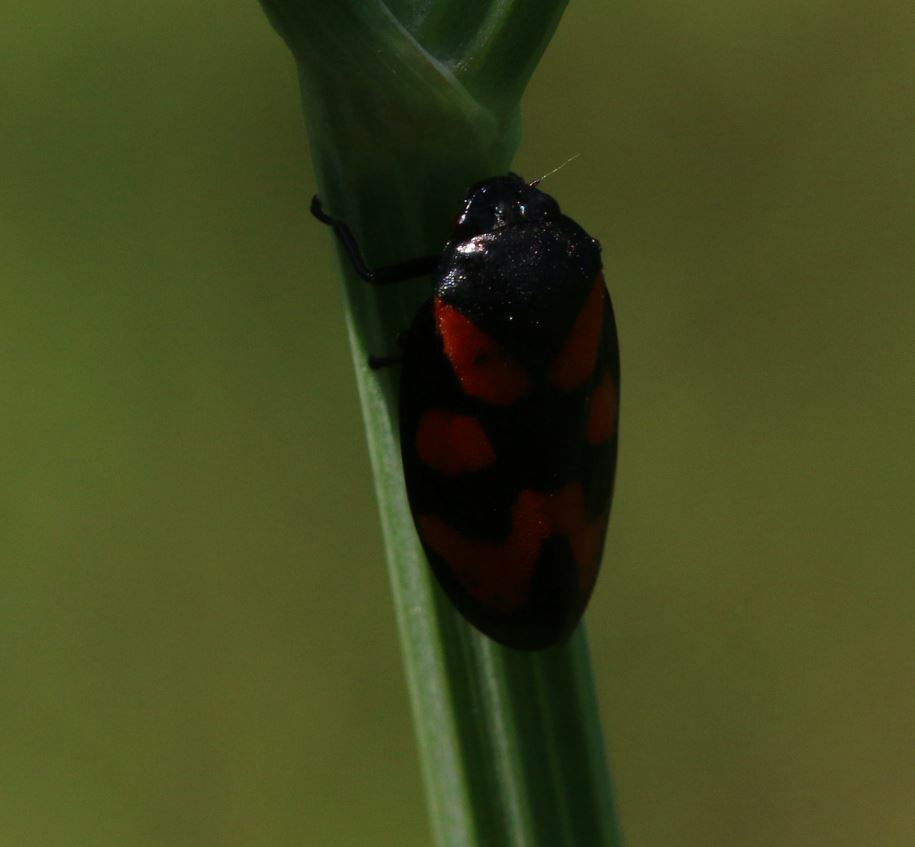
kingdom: Animalia
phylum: Arthropoda
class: Insecta
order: Hemiptera
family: Cercopidae
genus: Cercopis
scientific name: Cercopis vulnerata
